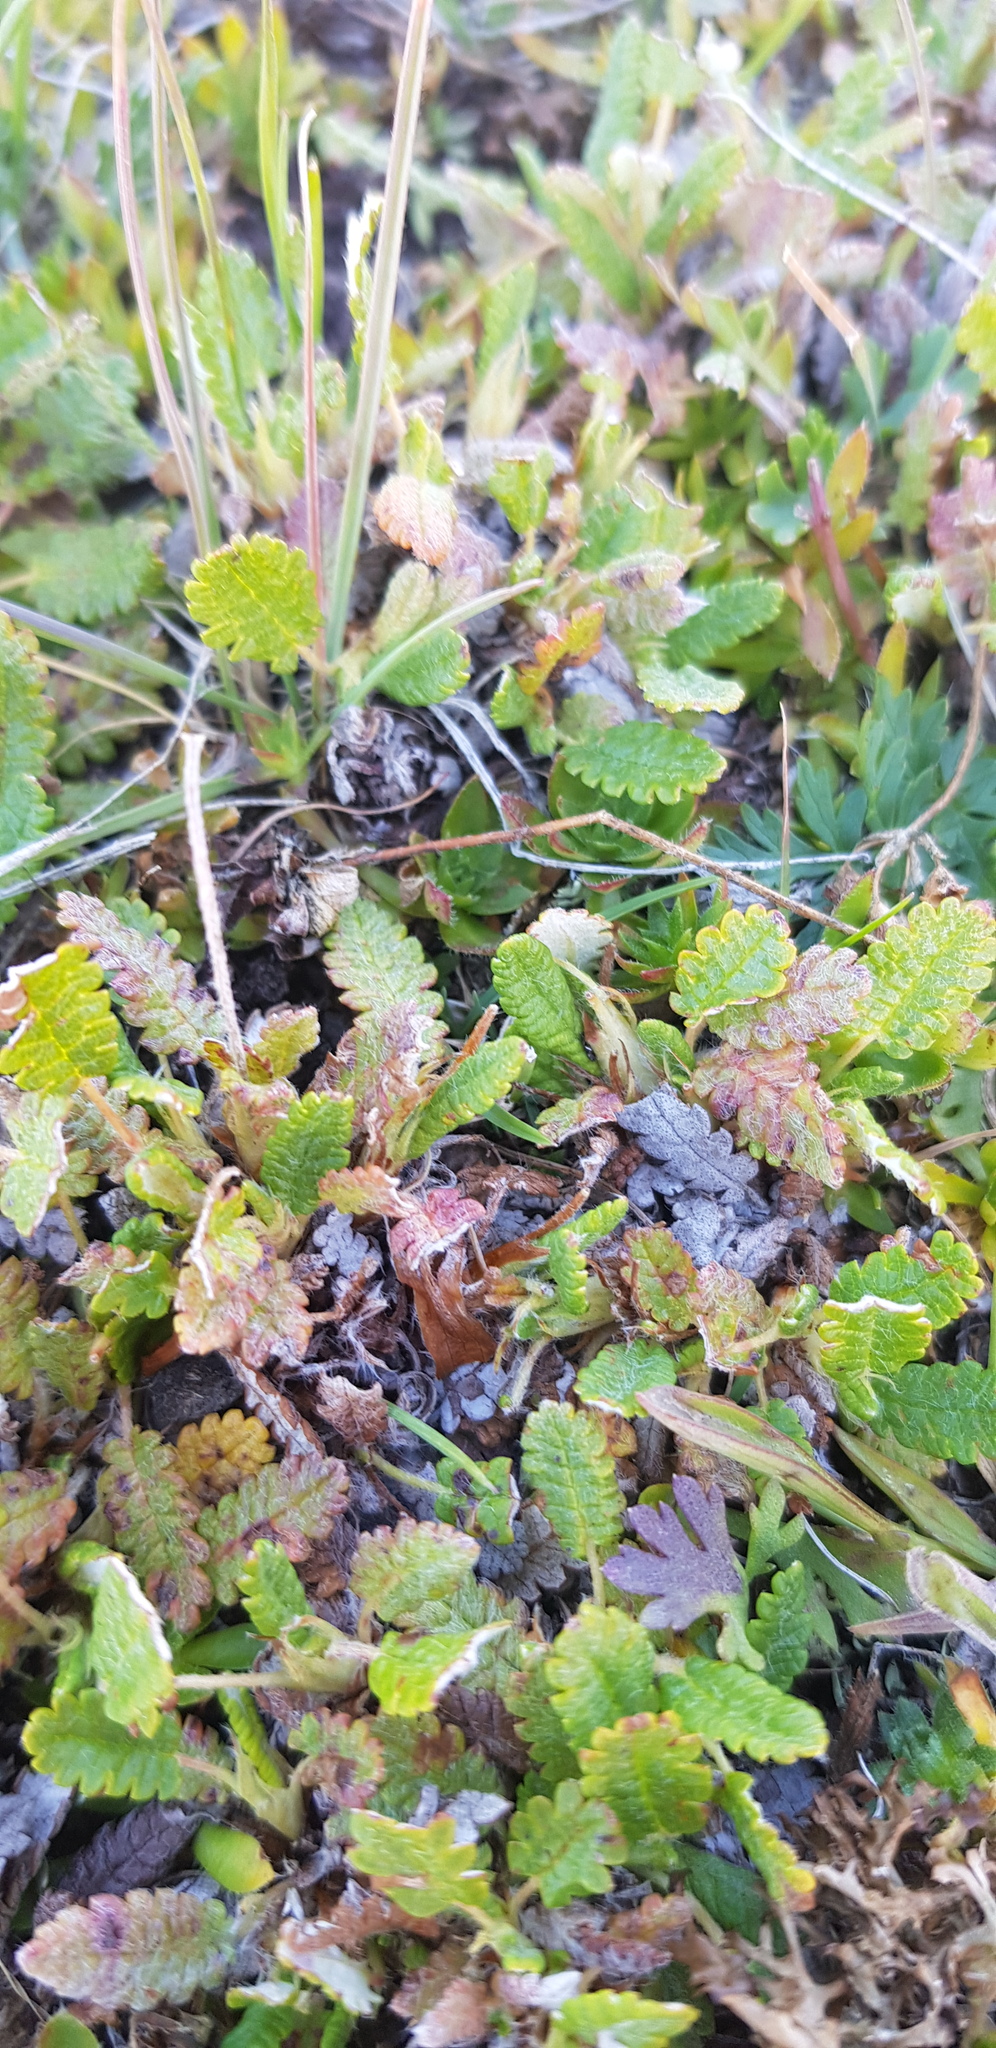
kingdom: Plantae
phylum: Tracheophyta
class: Magnoliopsida
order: Rosales
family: Rosaceae
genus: Dryas
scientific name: Dryas octopetala
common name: Eight-petal mountain-avens
